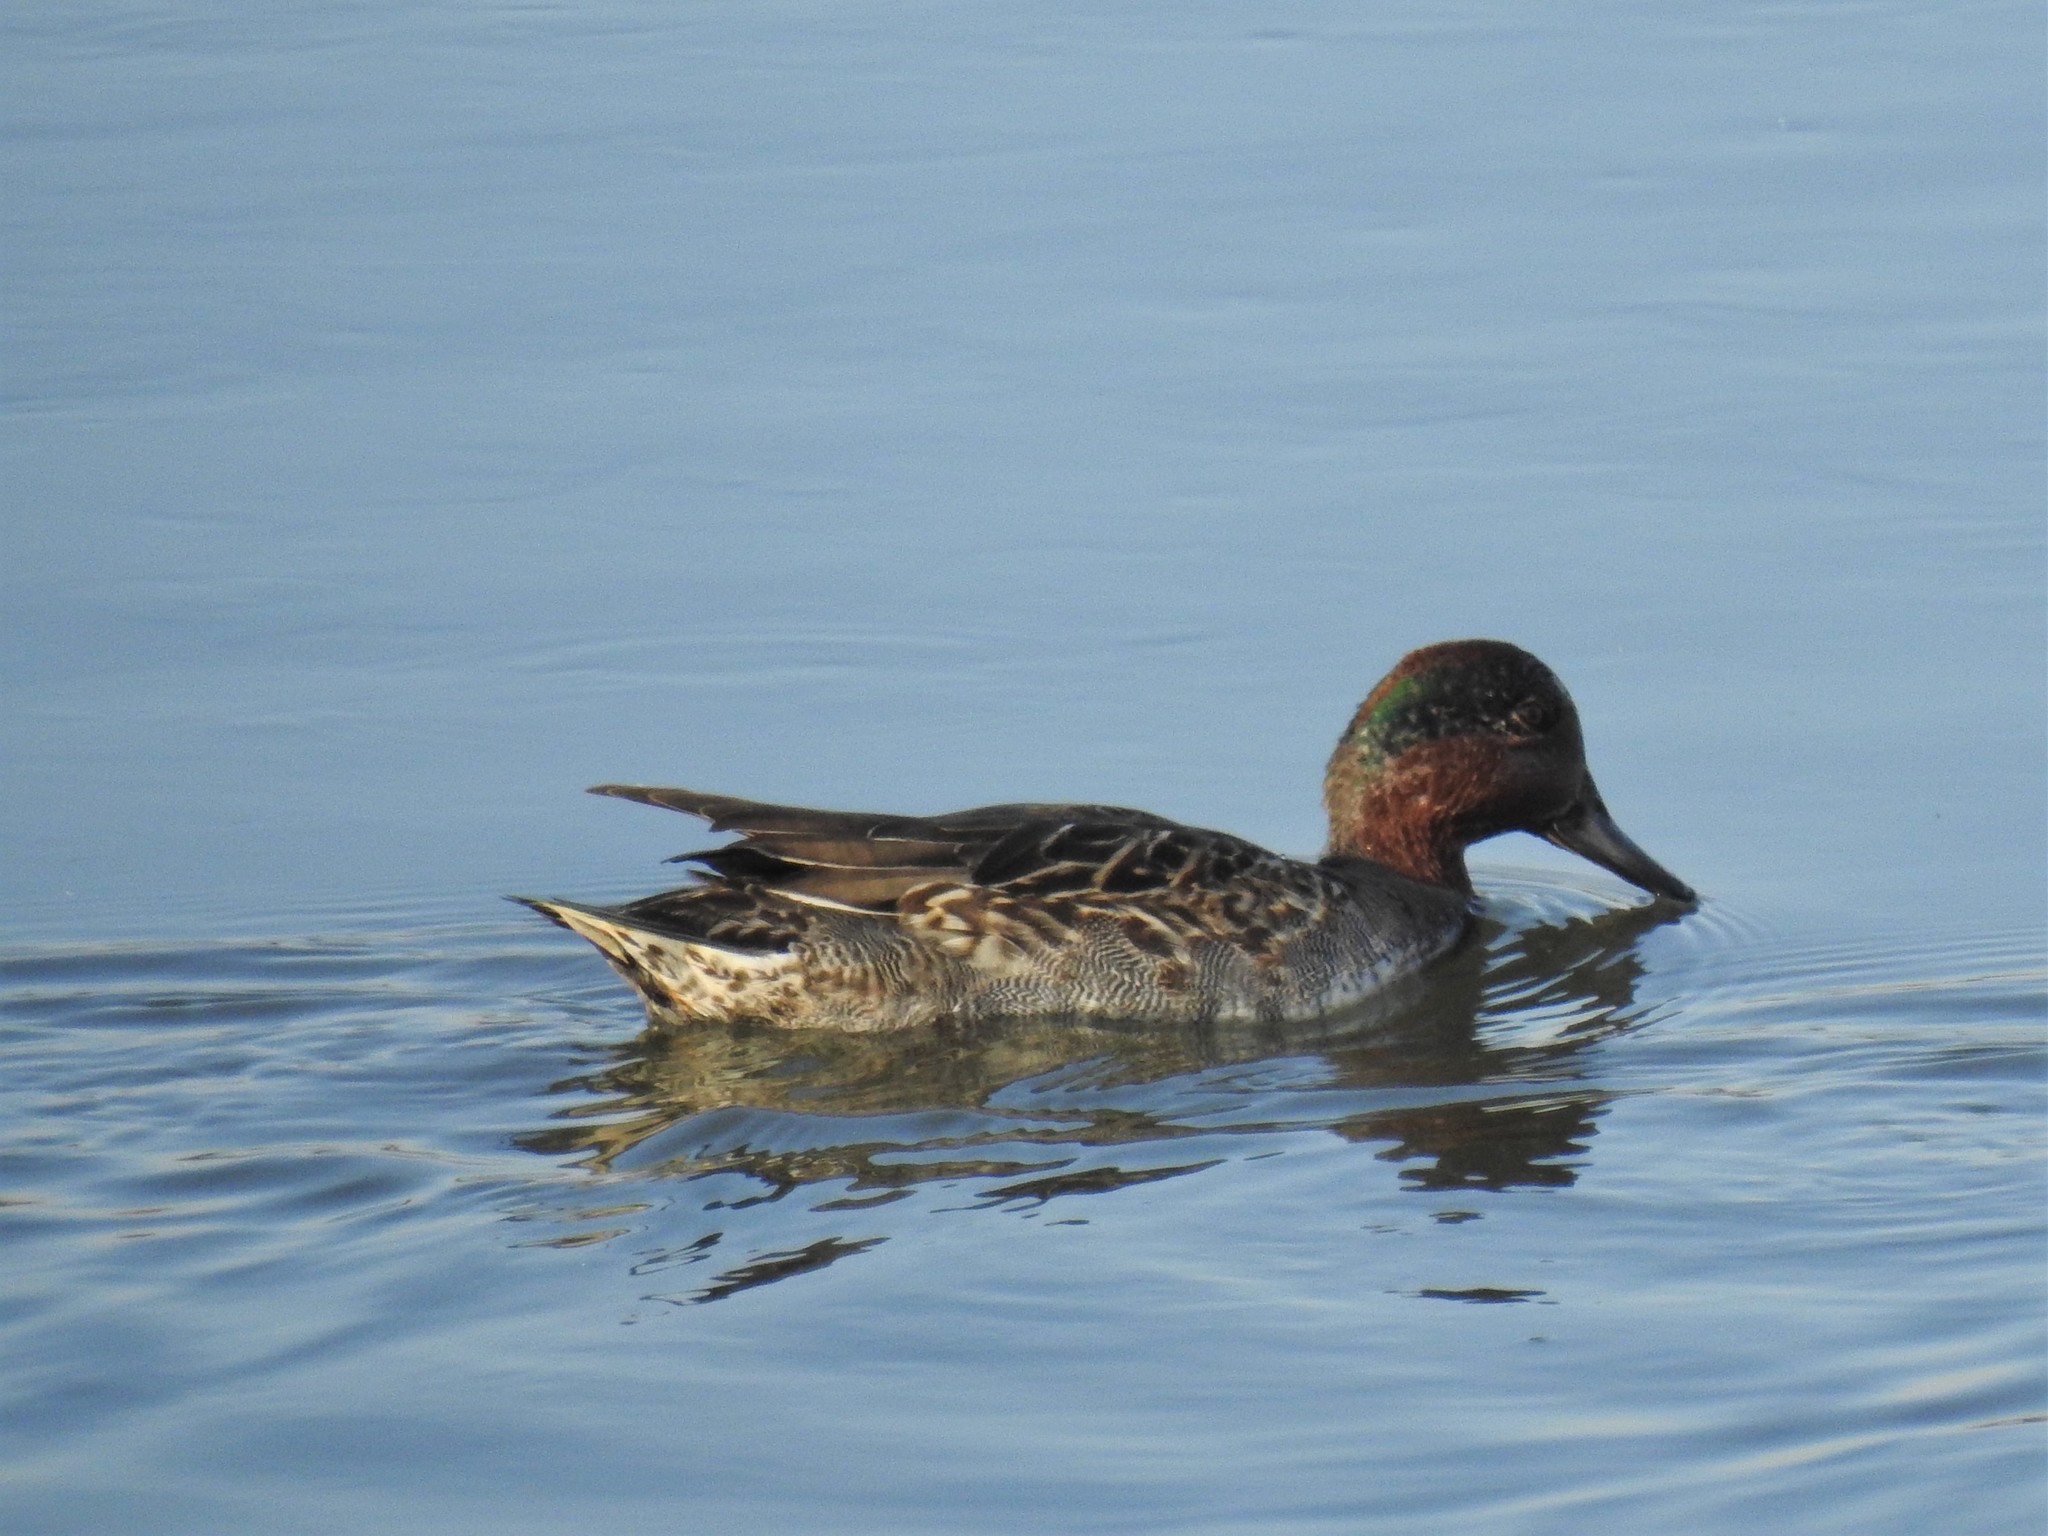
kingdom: Animalia
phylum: Chordata
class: Aves
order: Anseriformes
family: Anatidae
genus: Anas
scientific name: Anas crecca
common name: Eurasian teal
